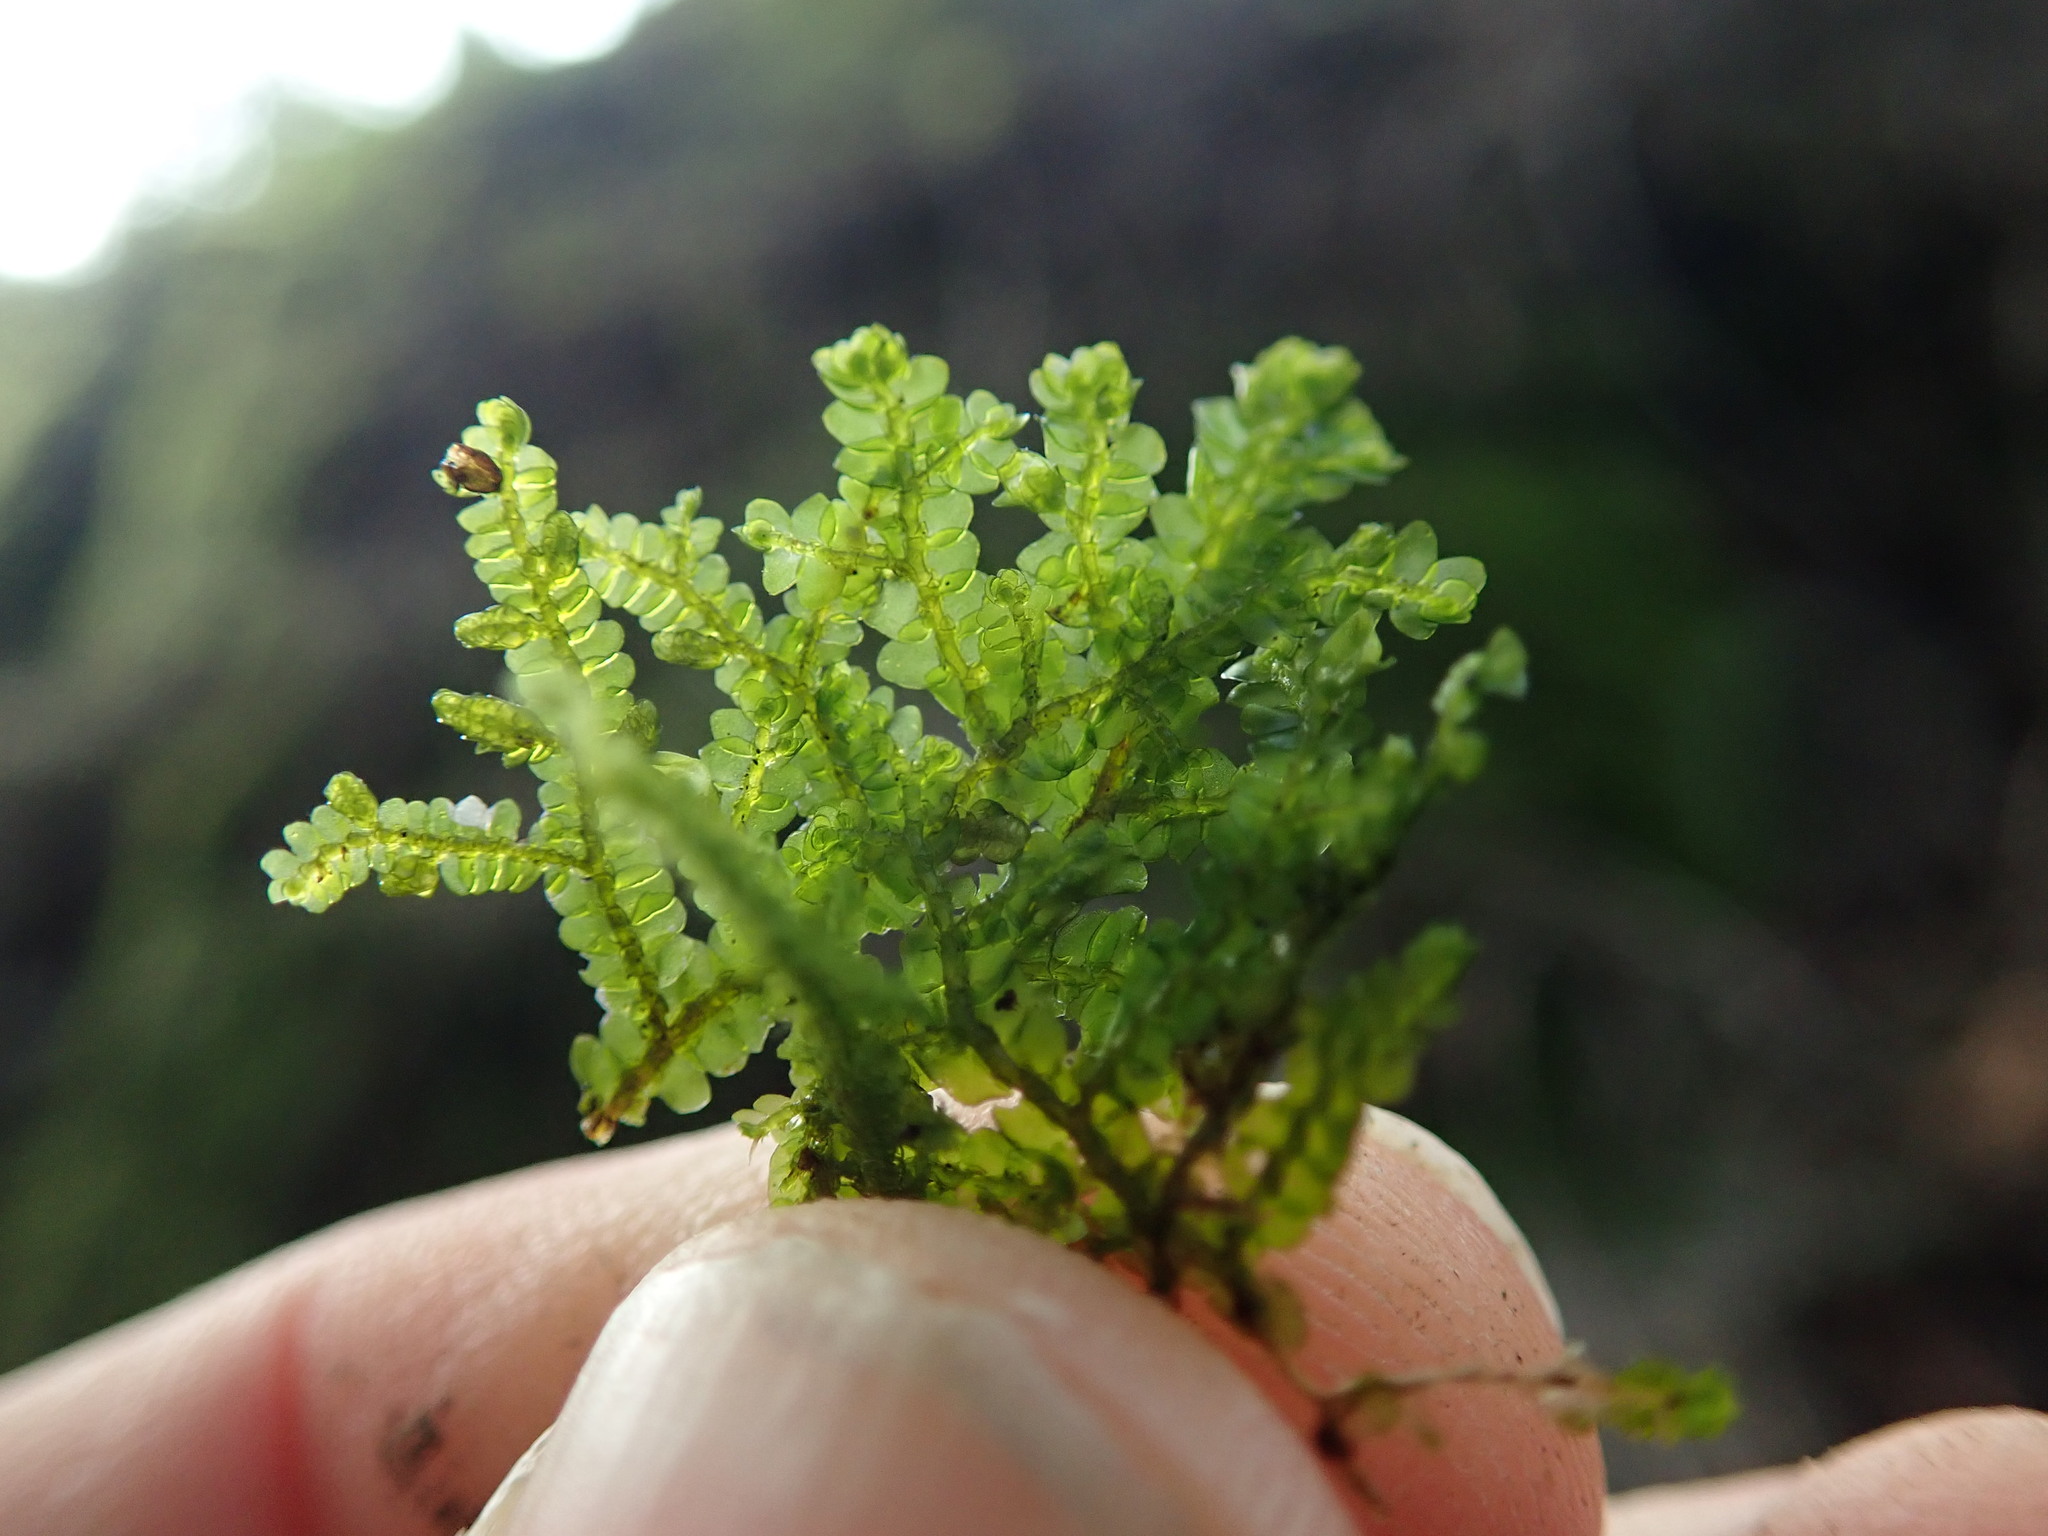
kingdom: Plantae
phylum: Marchantiophyta
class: Jungermanniopsida
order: Porellales
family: Porellaceae
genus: Porella
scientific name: Porella cordaeana
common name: Cliff scalewort
